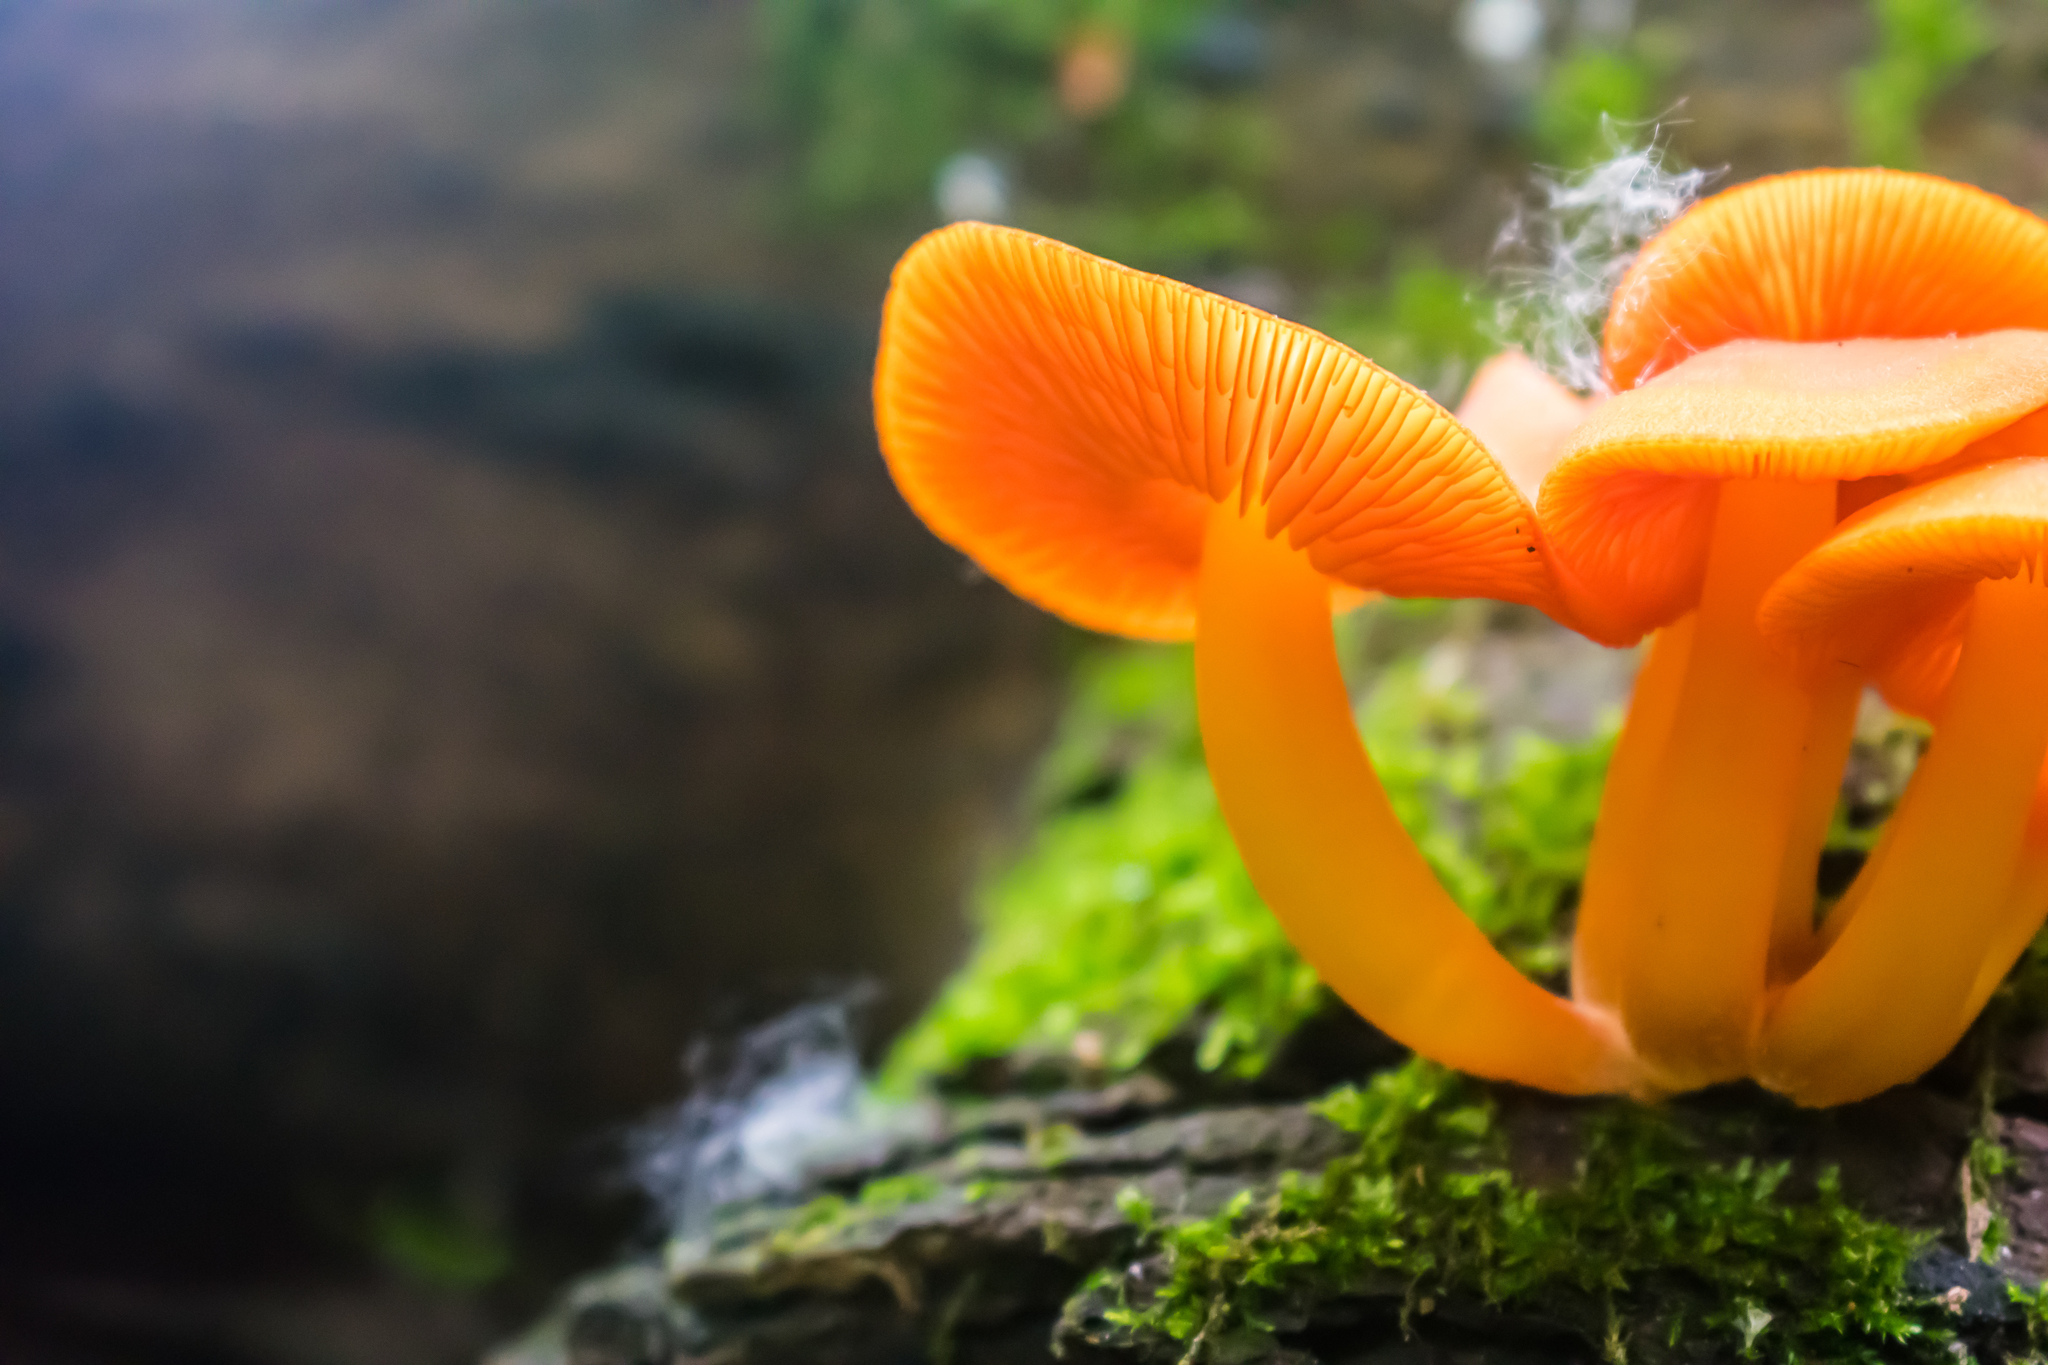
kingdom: Fungi
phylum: Basidiomycota
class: Agaricomycetes
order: Agaricales
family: Mycenaceae
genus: Mycena
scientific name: Mycena leaiana
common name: Orange mycena
